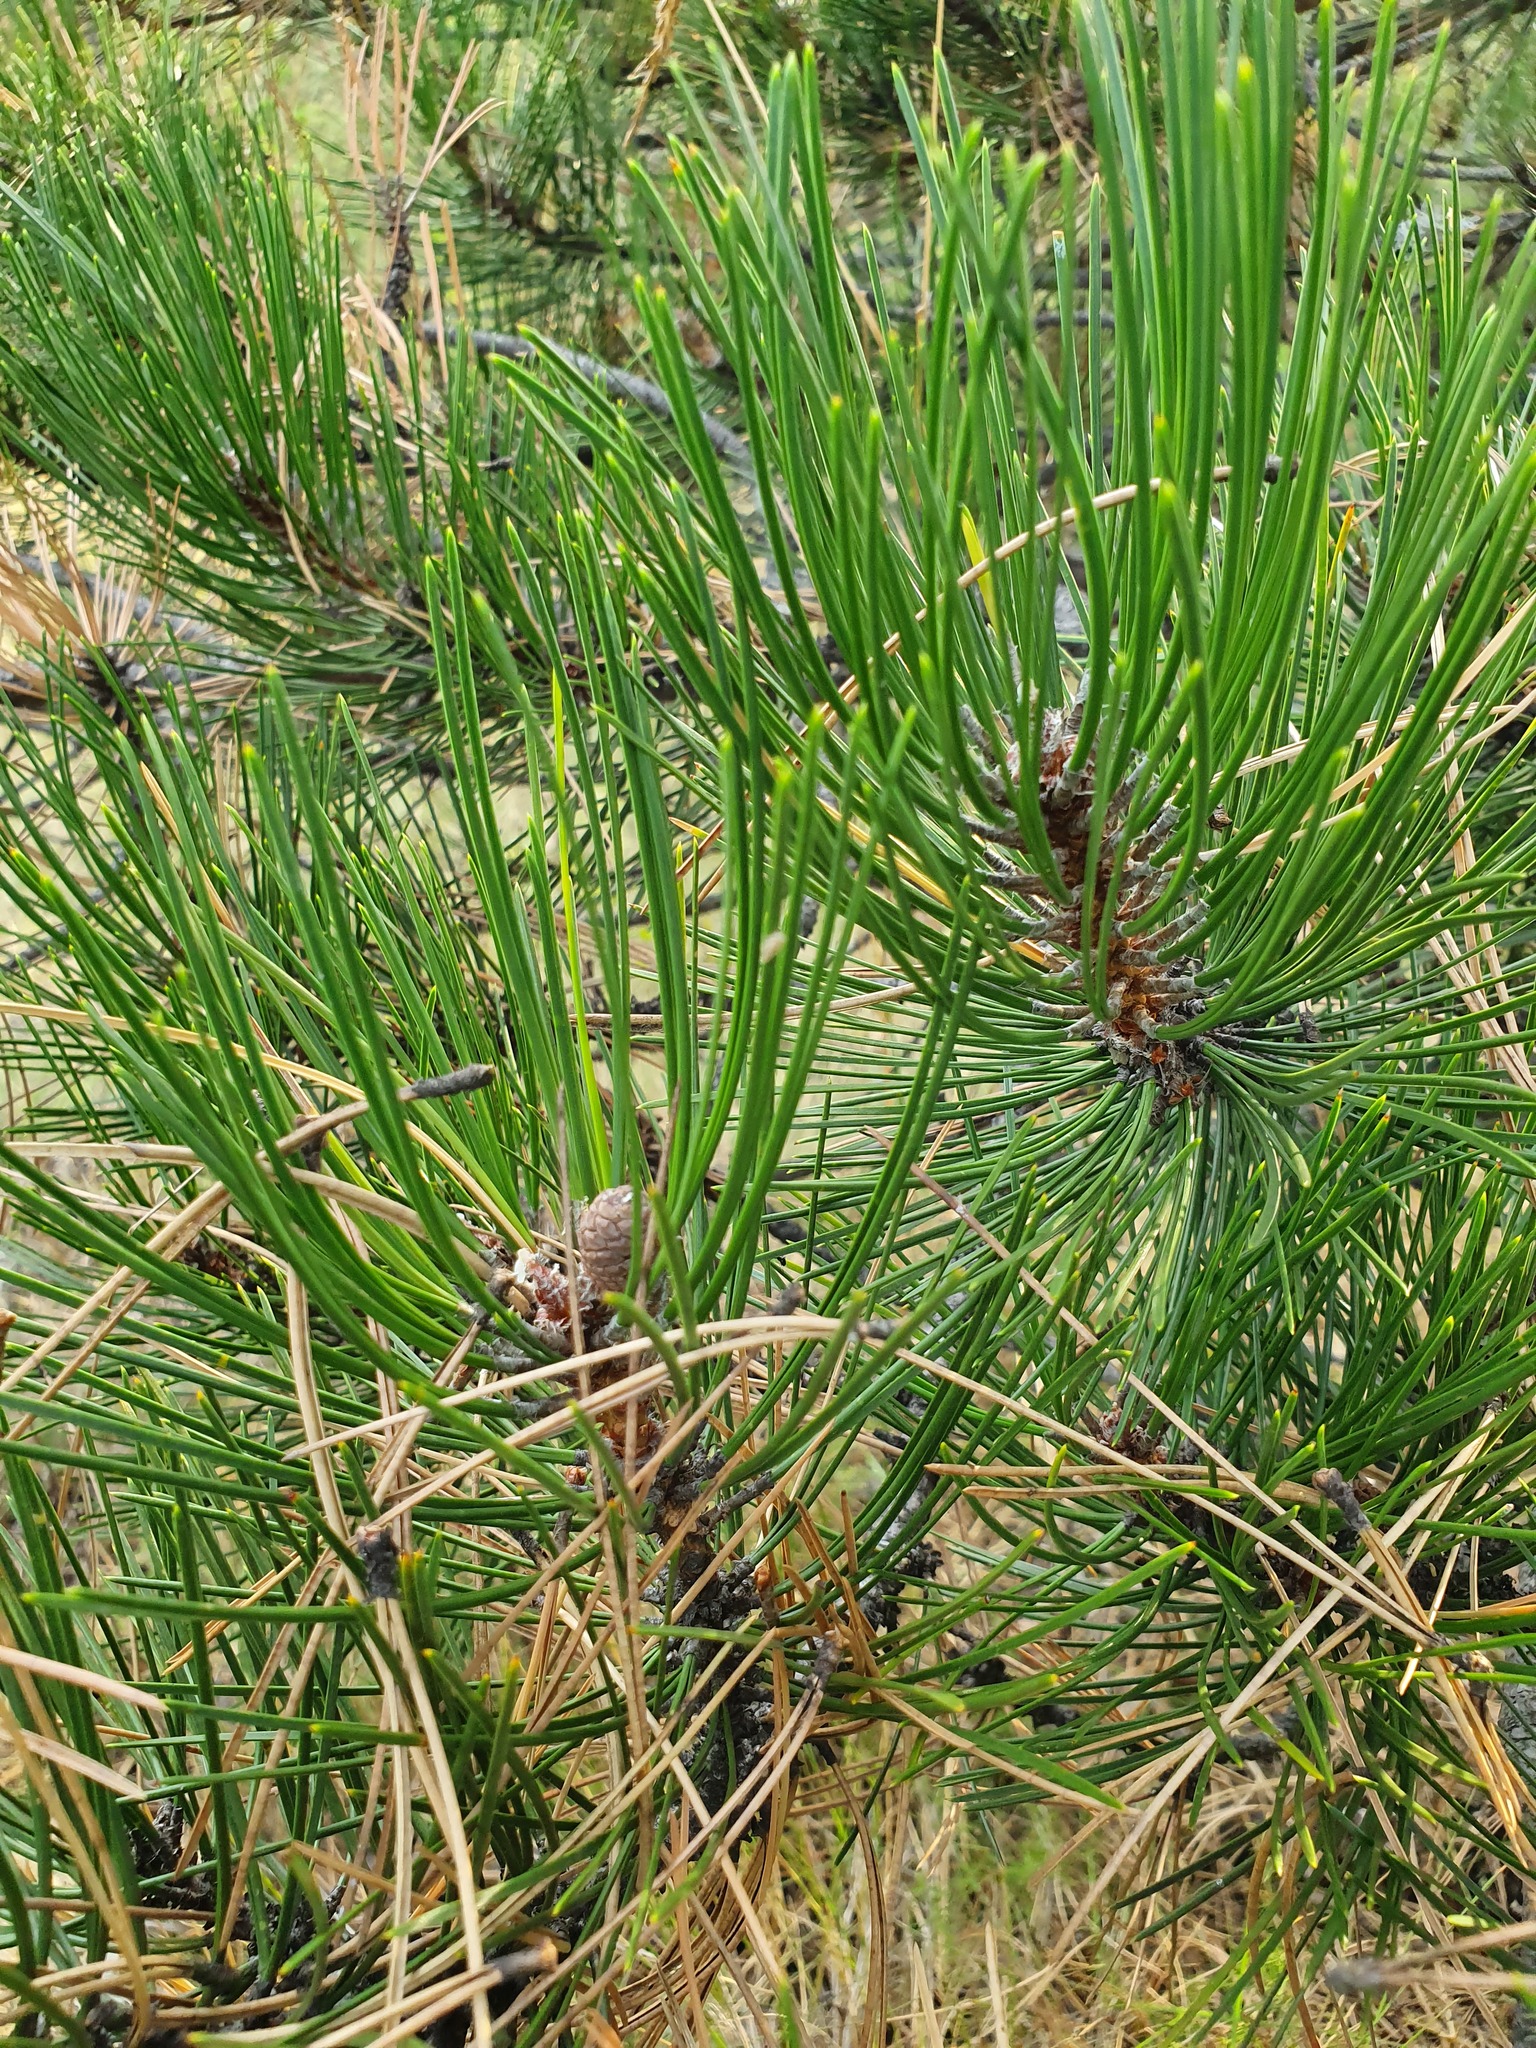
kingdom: Plantae
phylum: Tracheophyta
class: Pinopsida
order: Pinales
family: Pinaceae
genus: Pinus
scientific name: Pinus nigra
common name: Austrian pine
